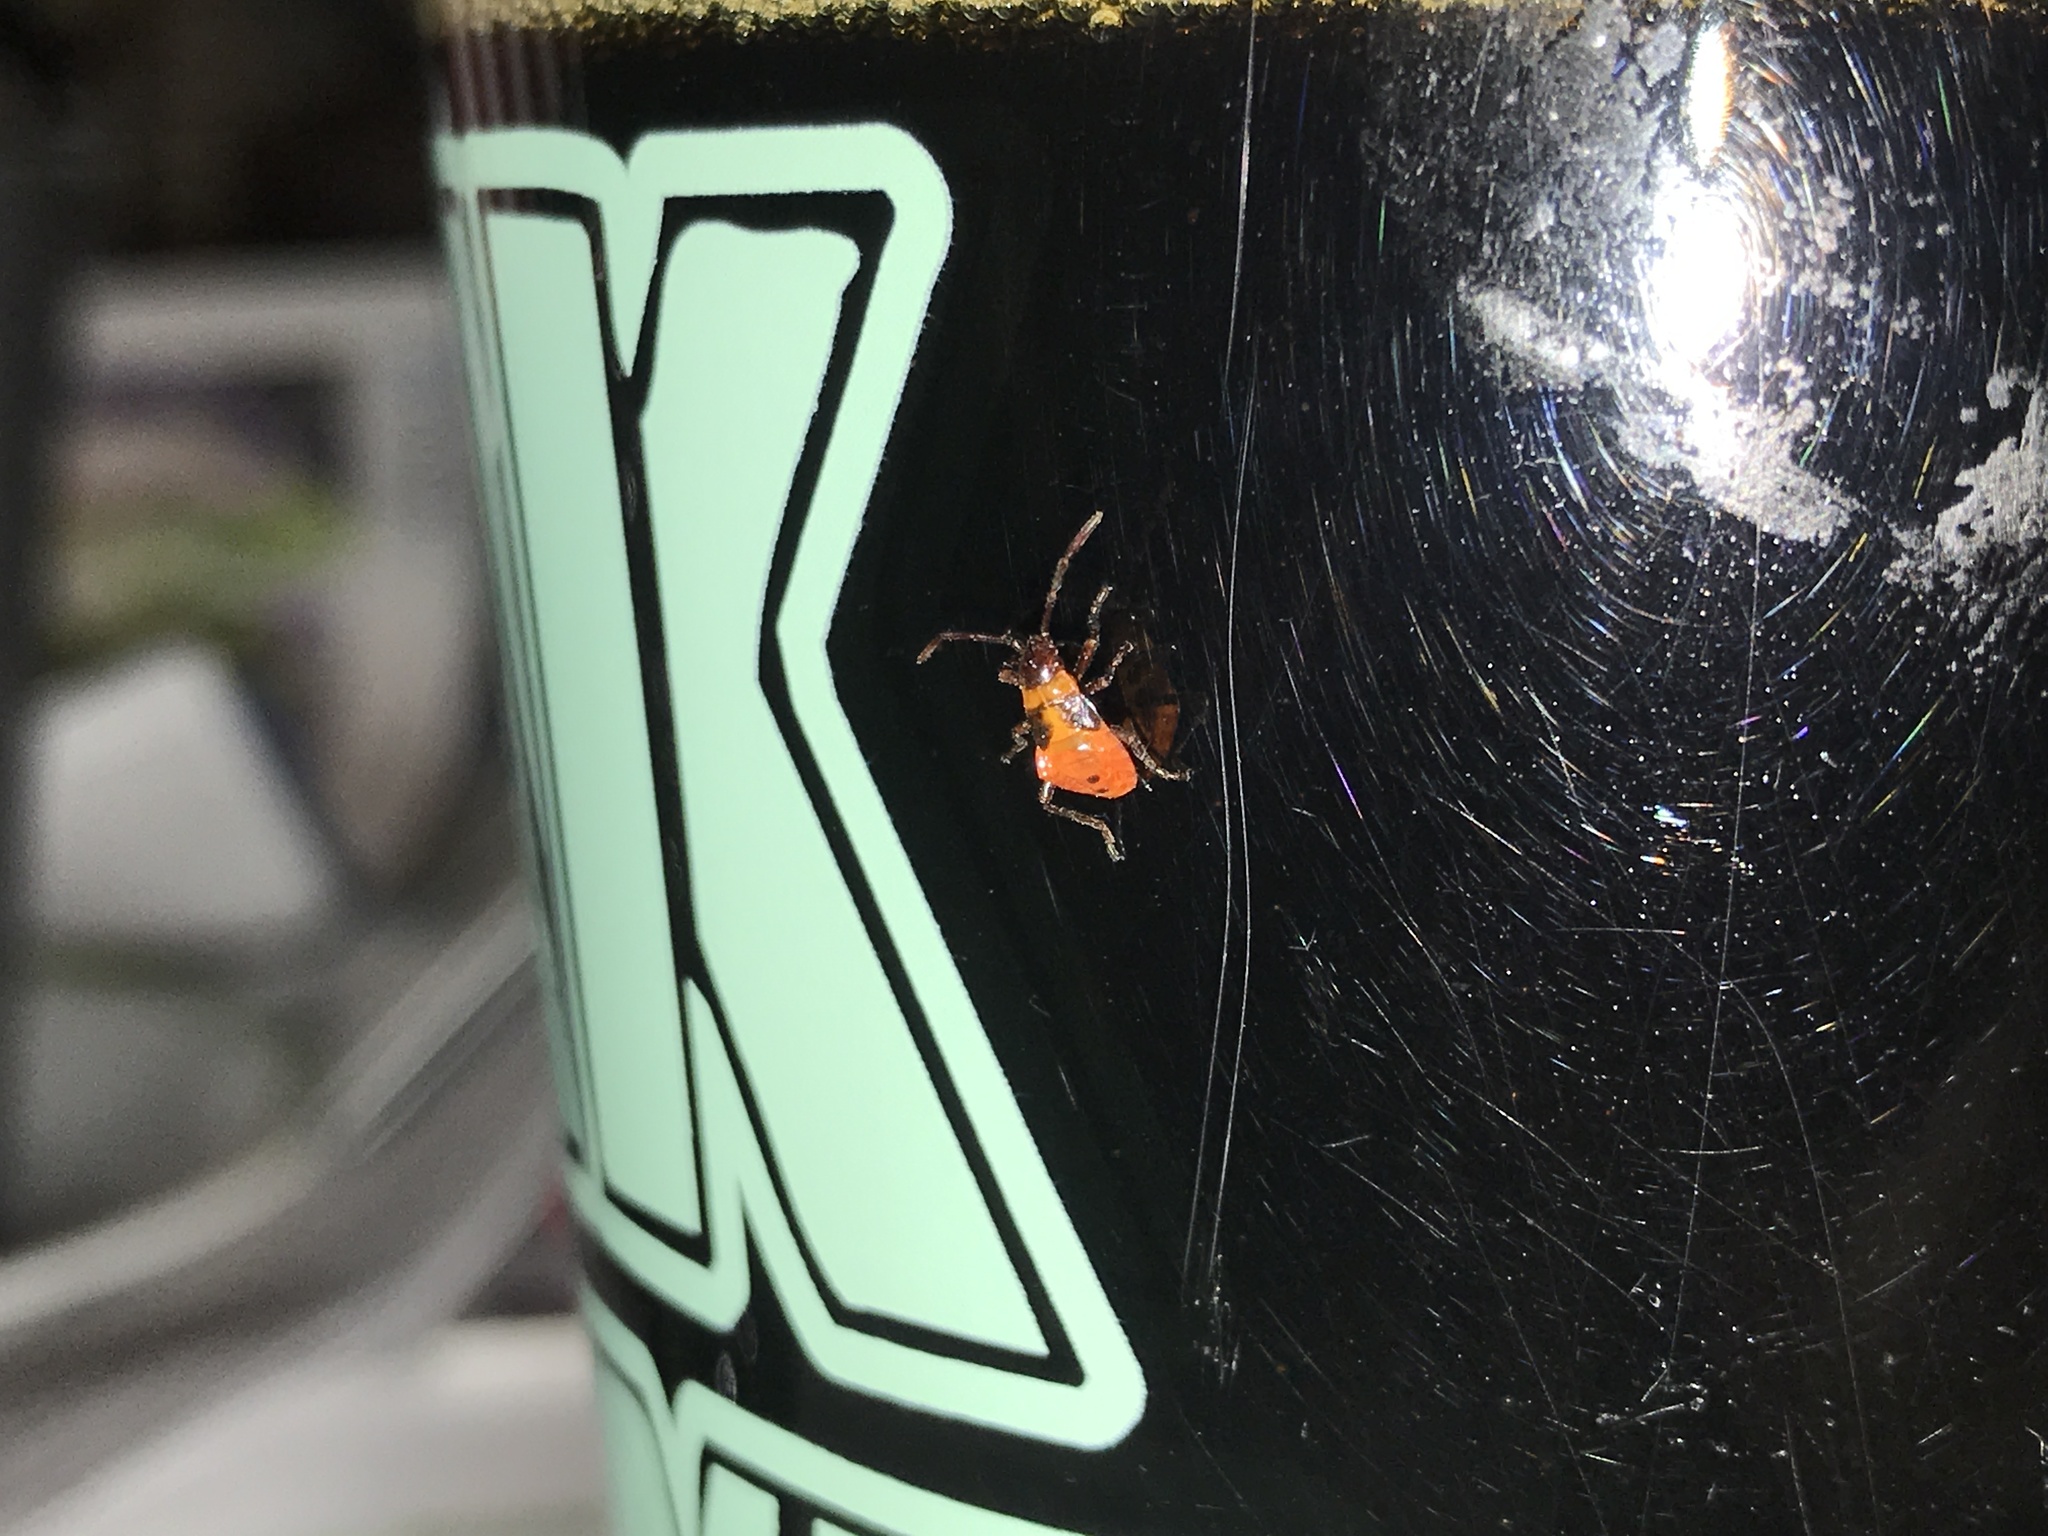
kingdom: Animalia
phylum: Arthropoda
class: Insecta
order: Hemiptera
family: Lygaeidae
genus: Oncopeltus
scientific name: Oncopeltus fasciatus
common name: Large milkweed bug
